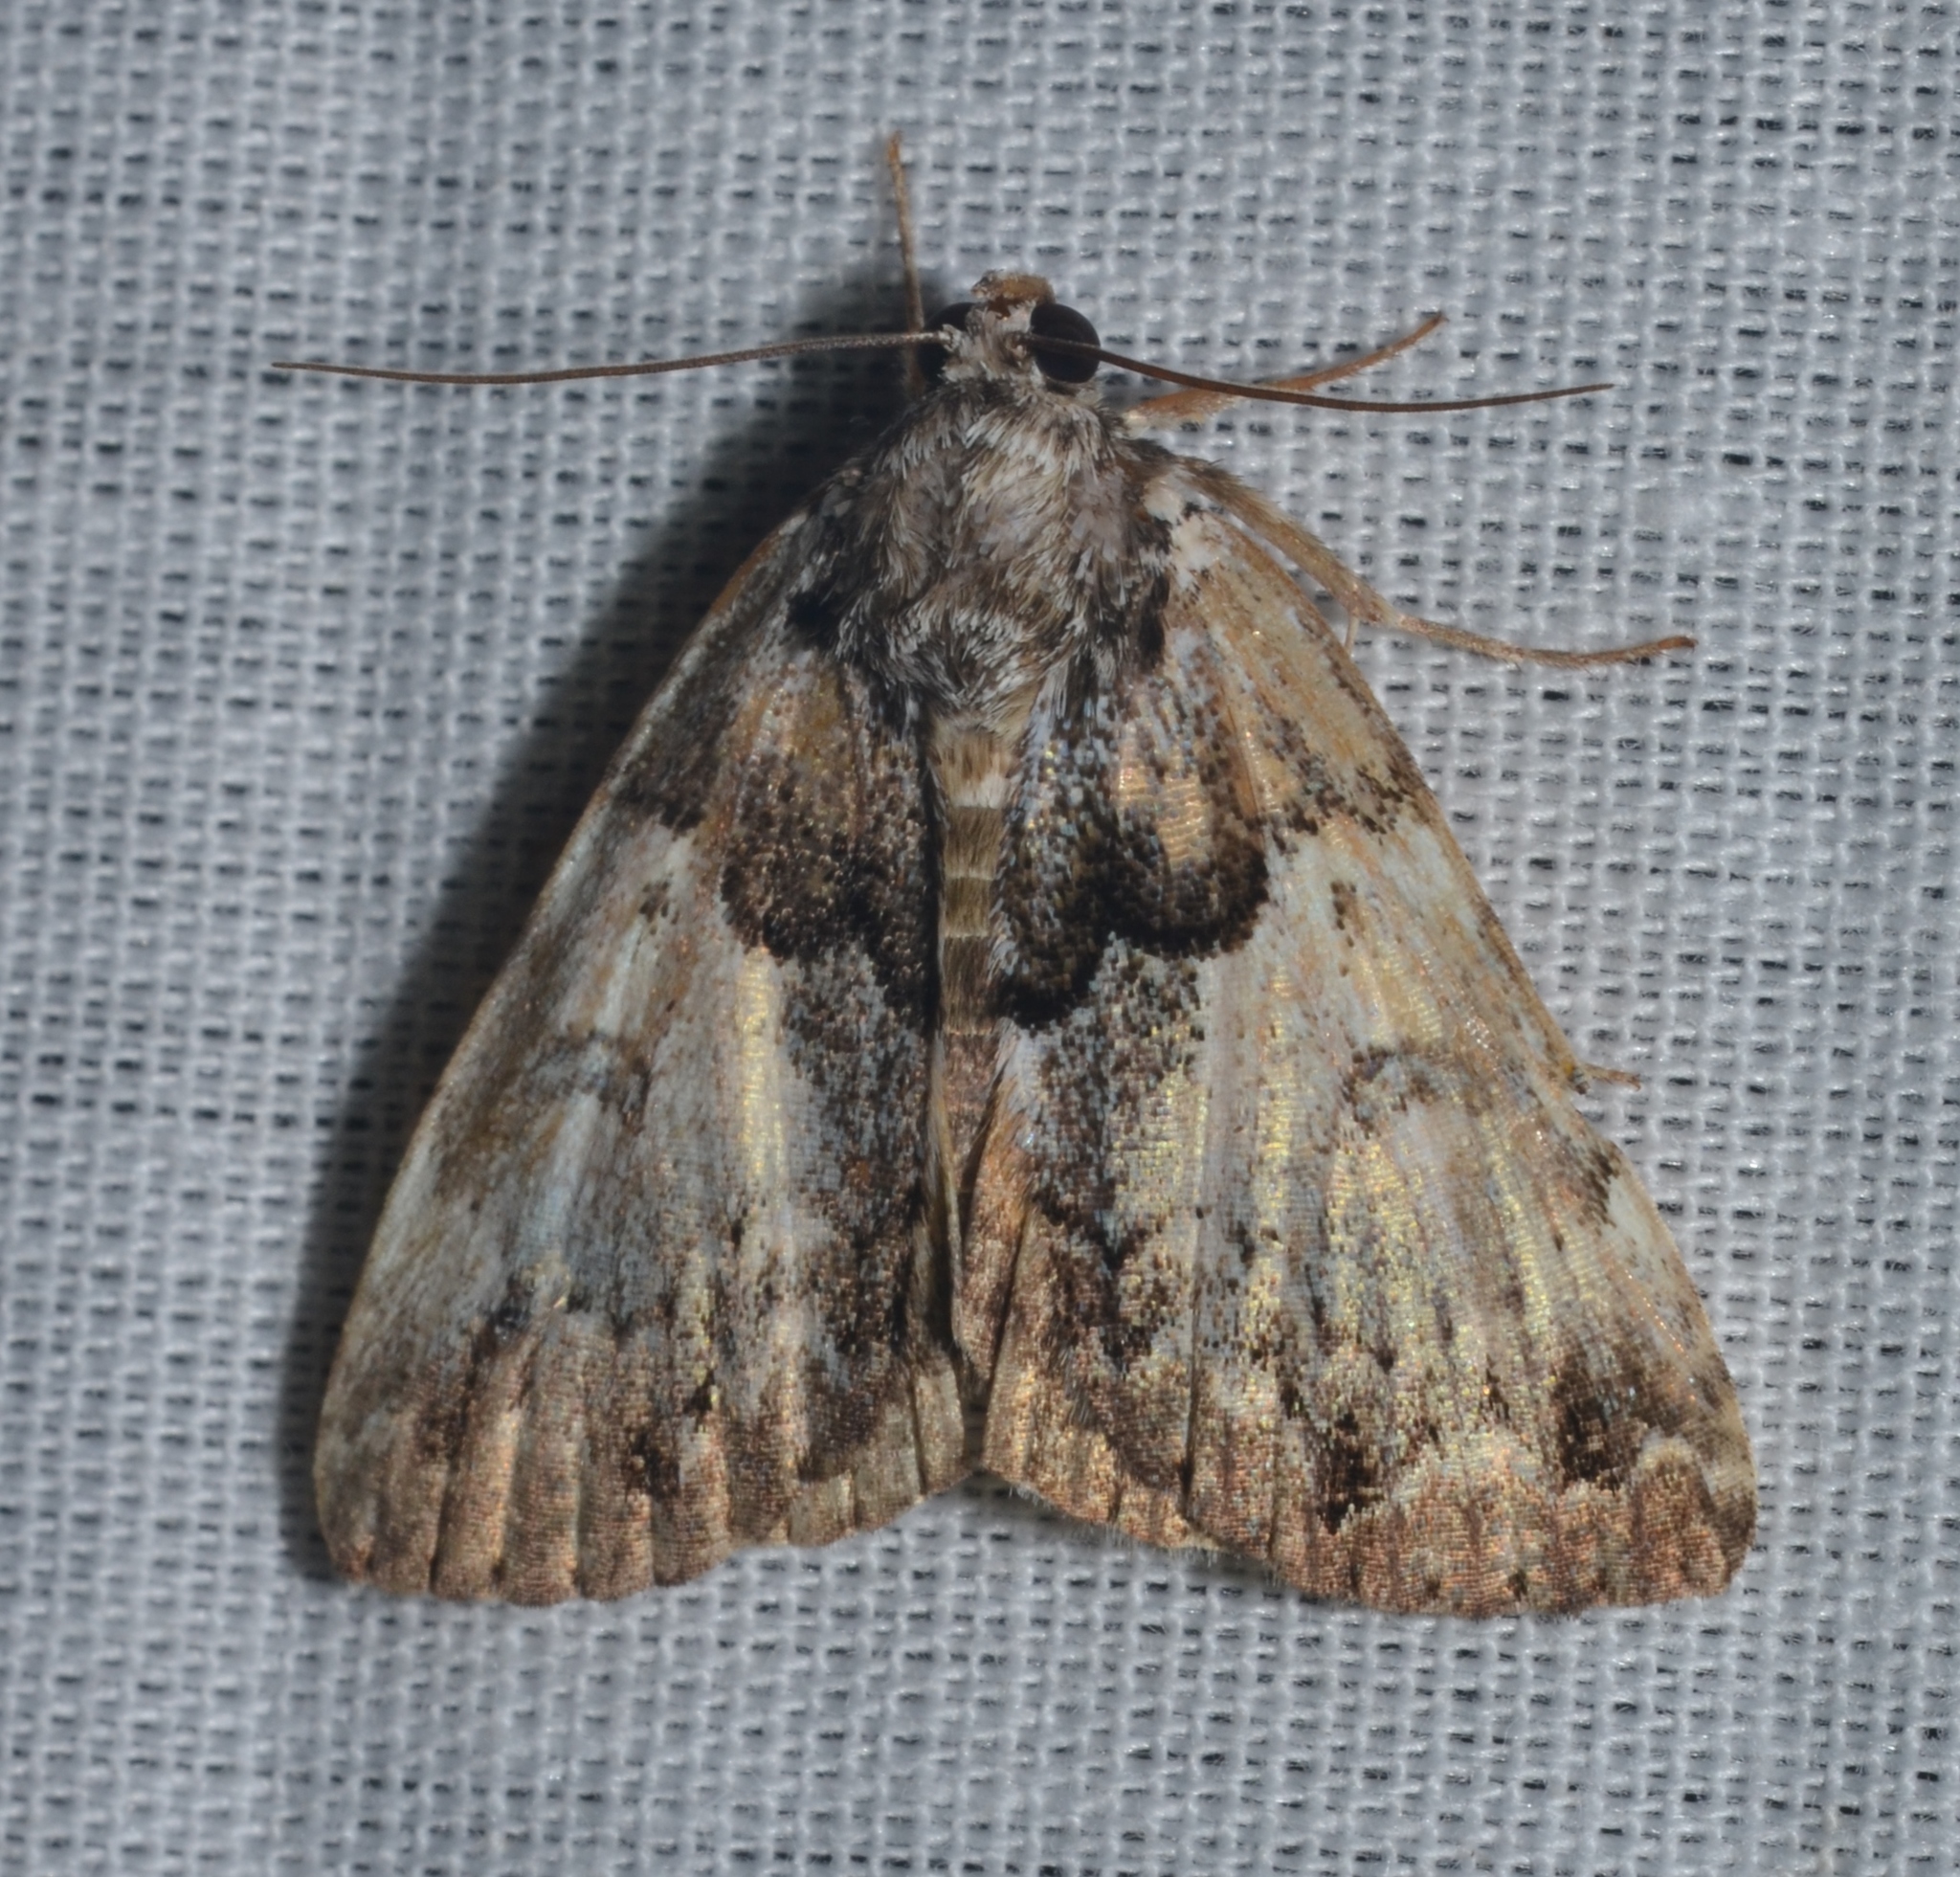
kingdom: Animalia
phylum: Arthropoda
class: Insecta
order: Lepidoptera
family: Erebidae
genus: Allotria
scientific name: Allotria elonympha
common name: False underwing
